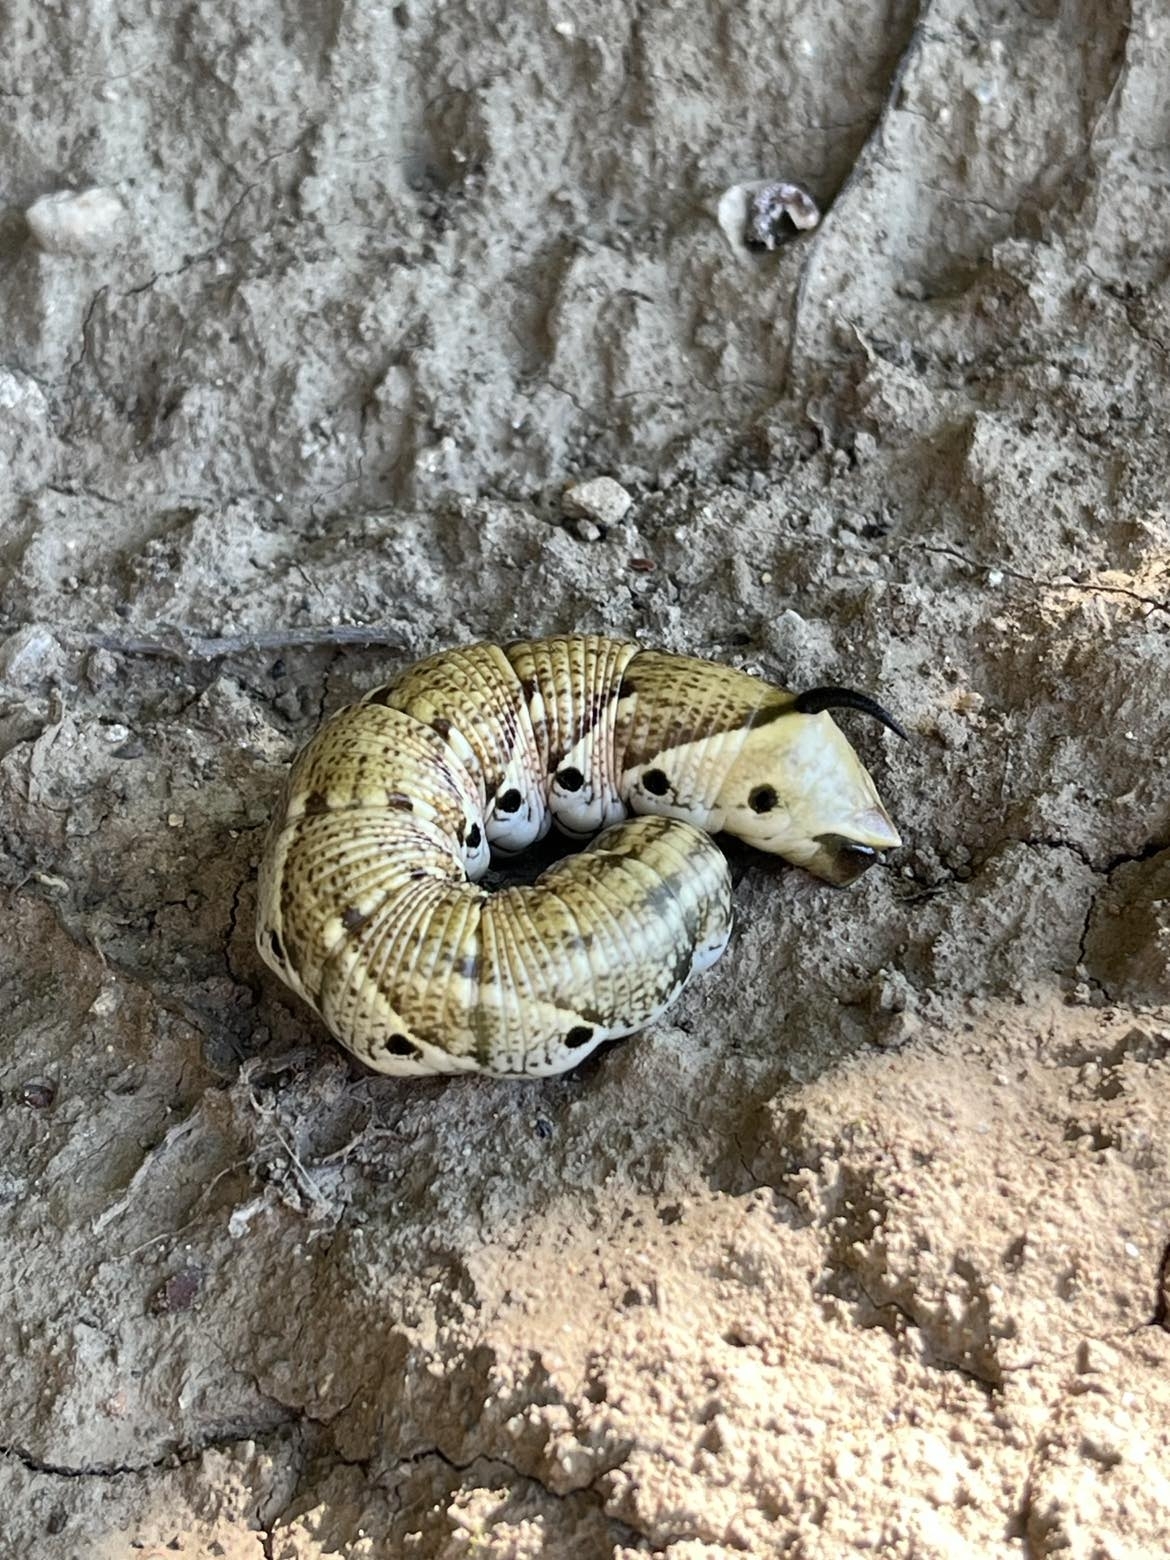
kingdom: Animalia
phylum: Arthropoda
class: Insecta
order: Lepidoptera
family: Sphingidae
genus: Agrius
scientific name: Agrius convolvuli
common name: Convolvulus hawkmoth
